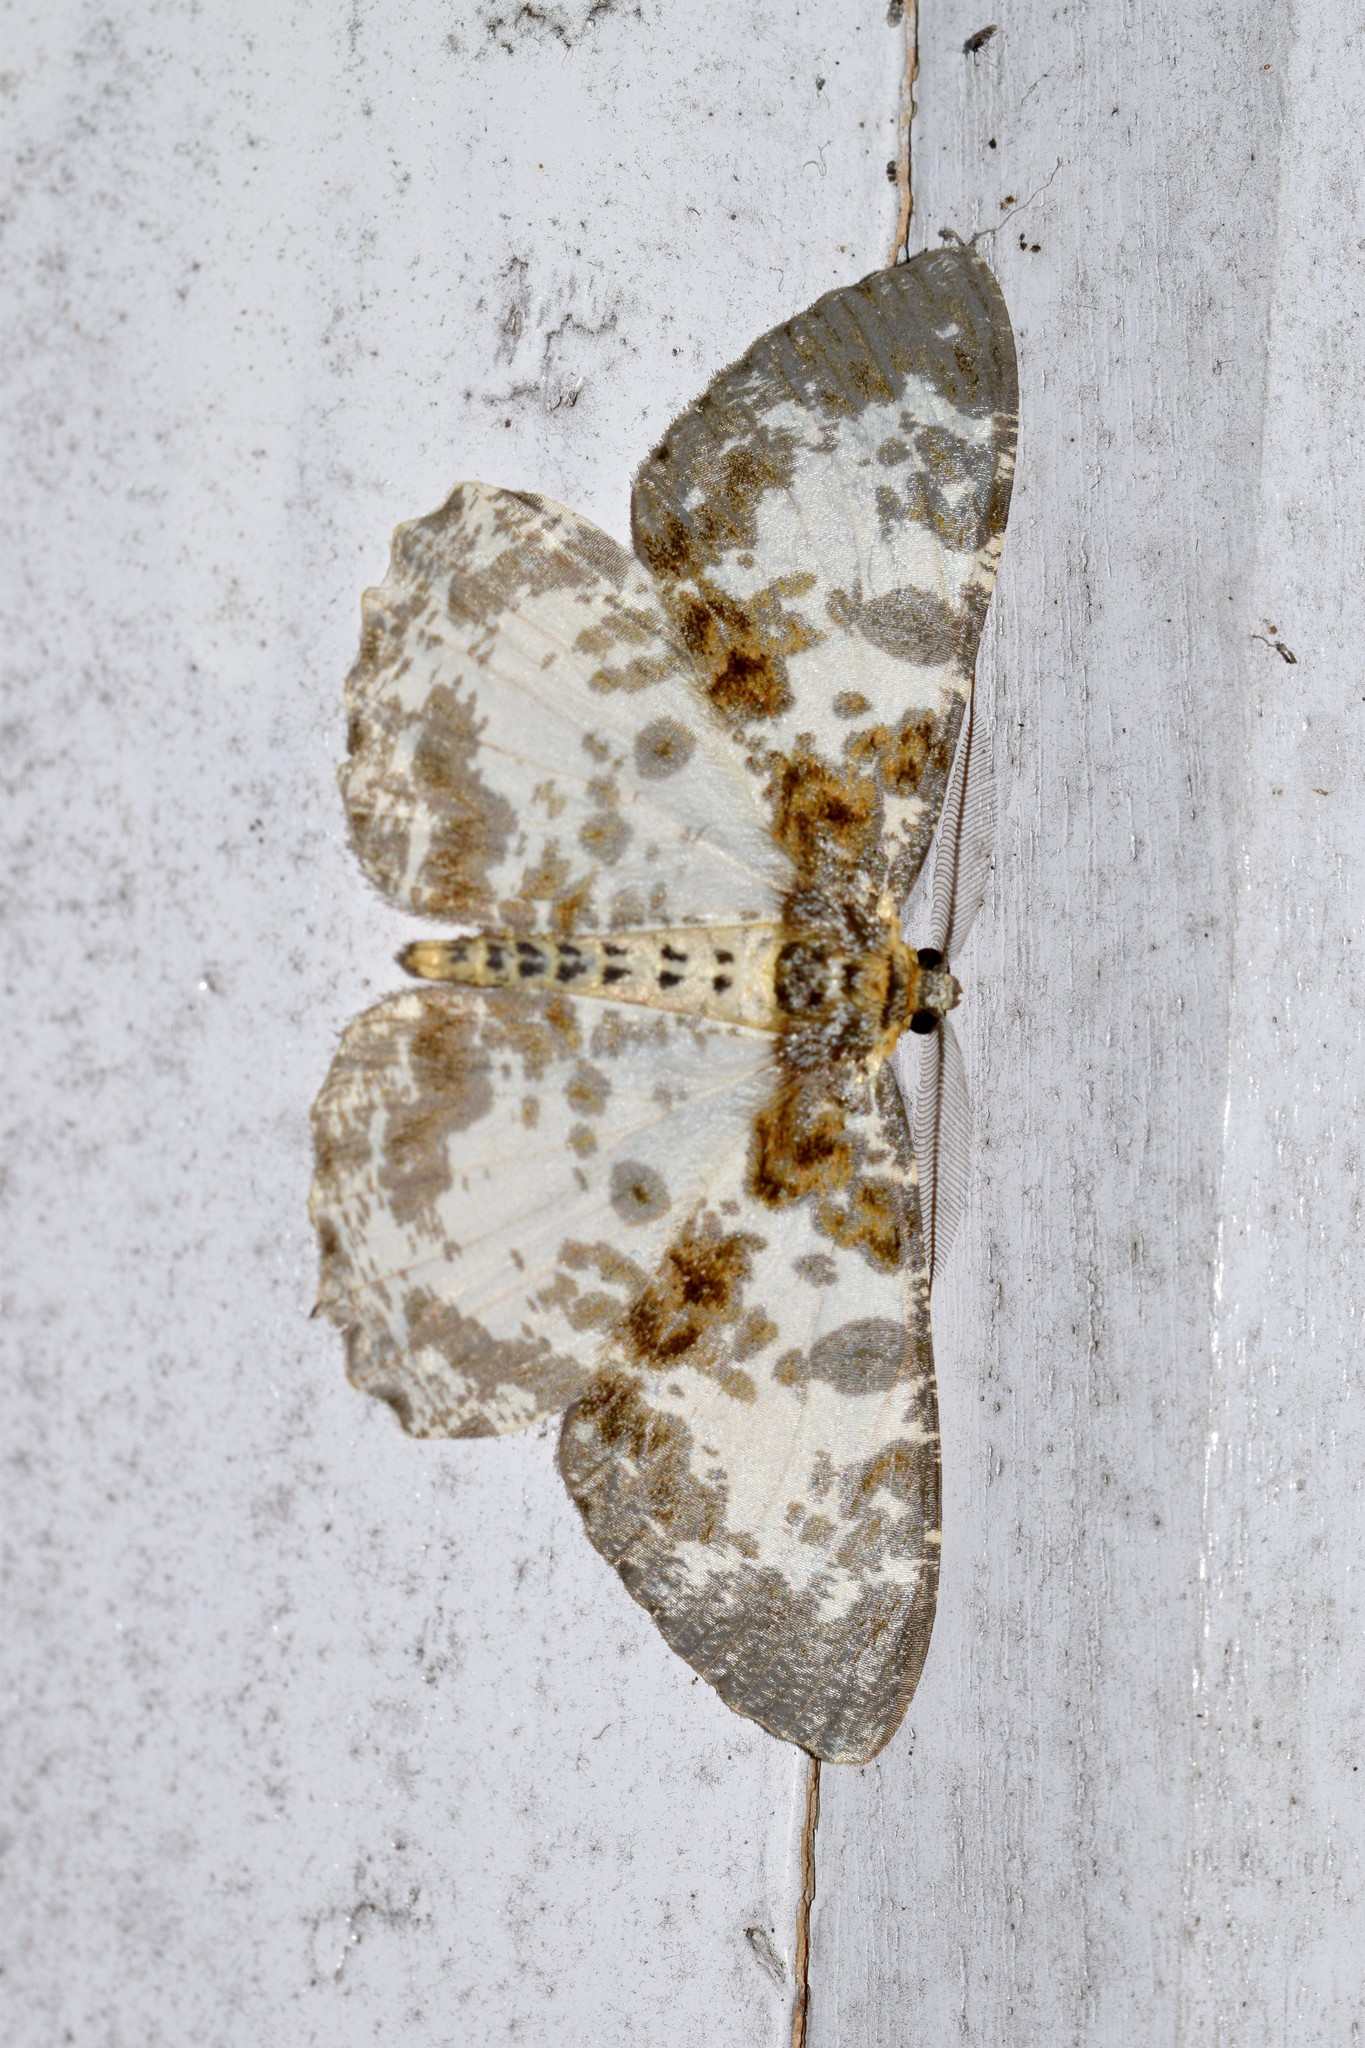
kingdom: Animalia
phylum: Arthropoda
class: Insecta
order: Lepidoptera
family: Geometridae
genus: Hypomecis
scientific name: Hypomecis pardaria
